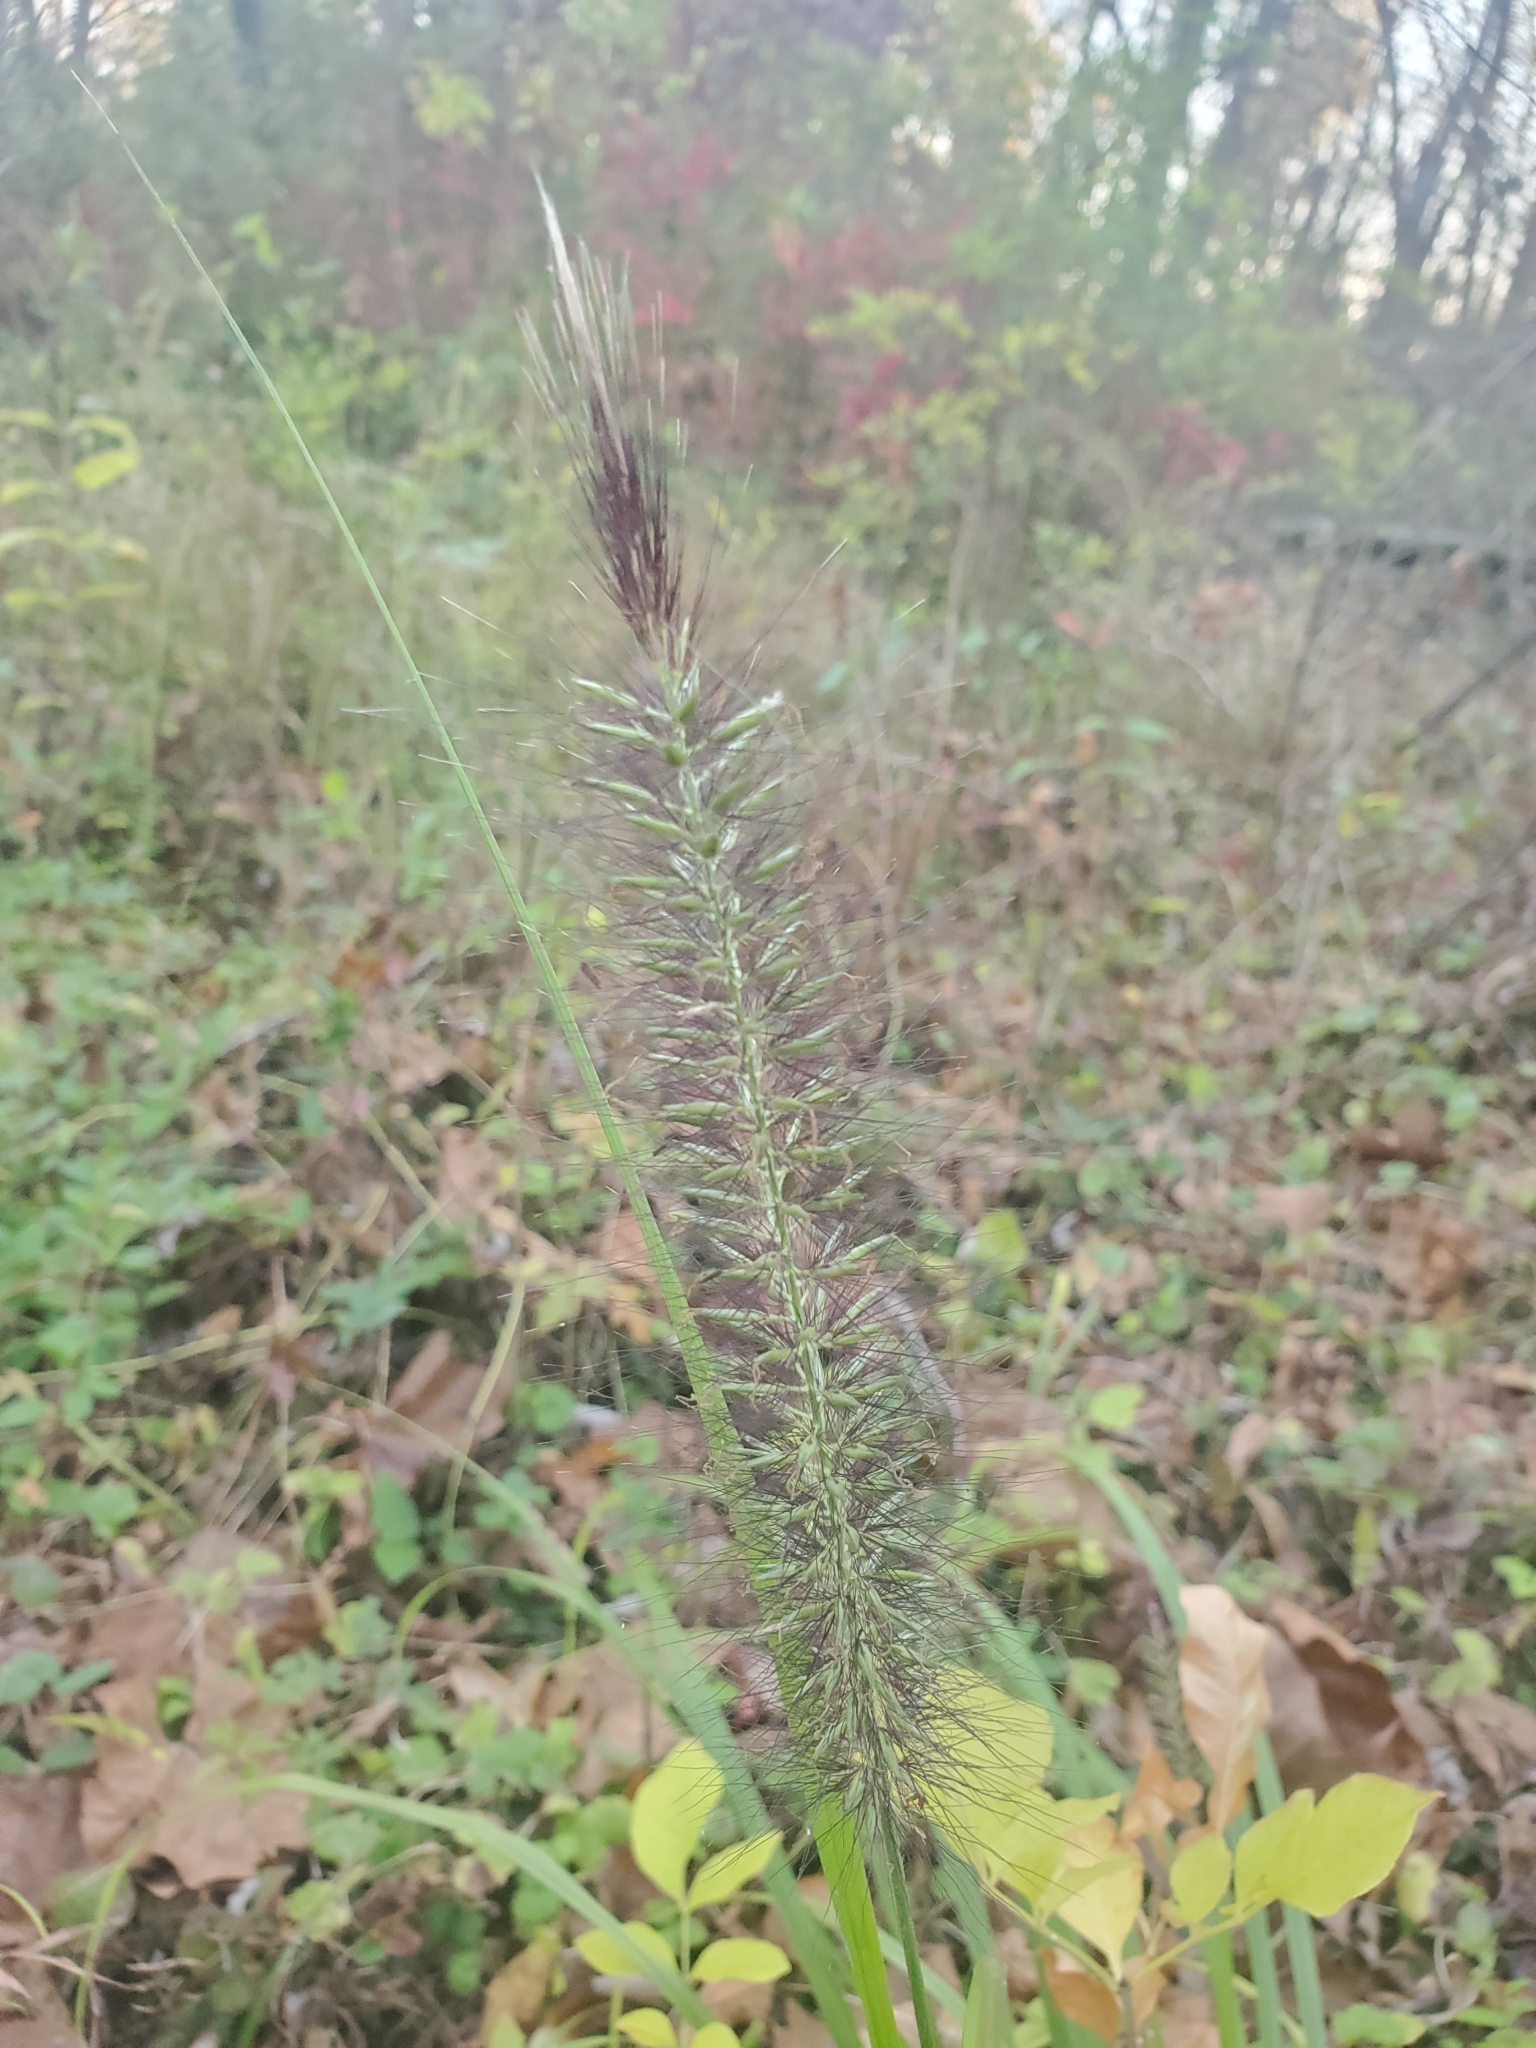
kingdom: Plantae
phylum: Tracheophyta
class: Liliopsida
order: Poales
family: Poaceae
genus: Cenchrus
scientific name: Cenchrus alopecuroides
